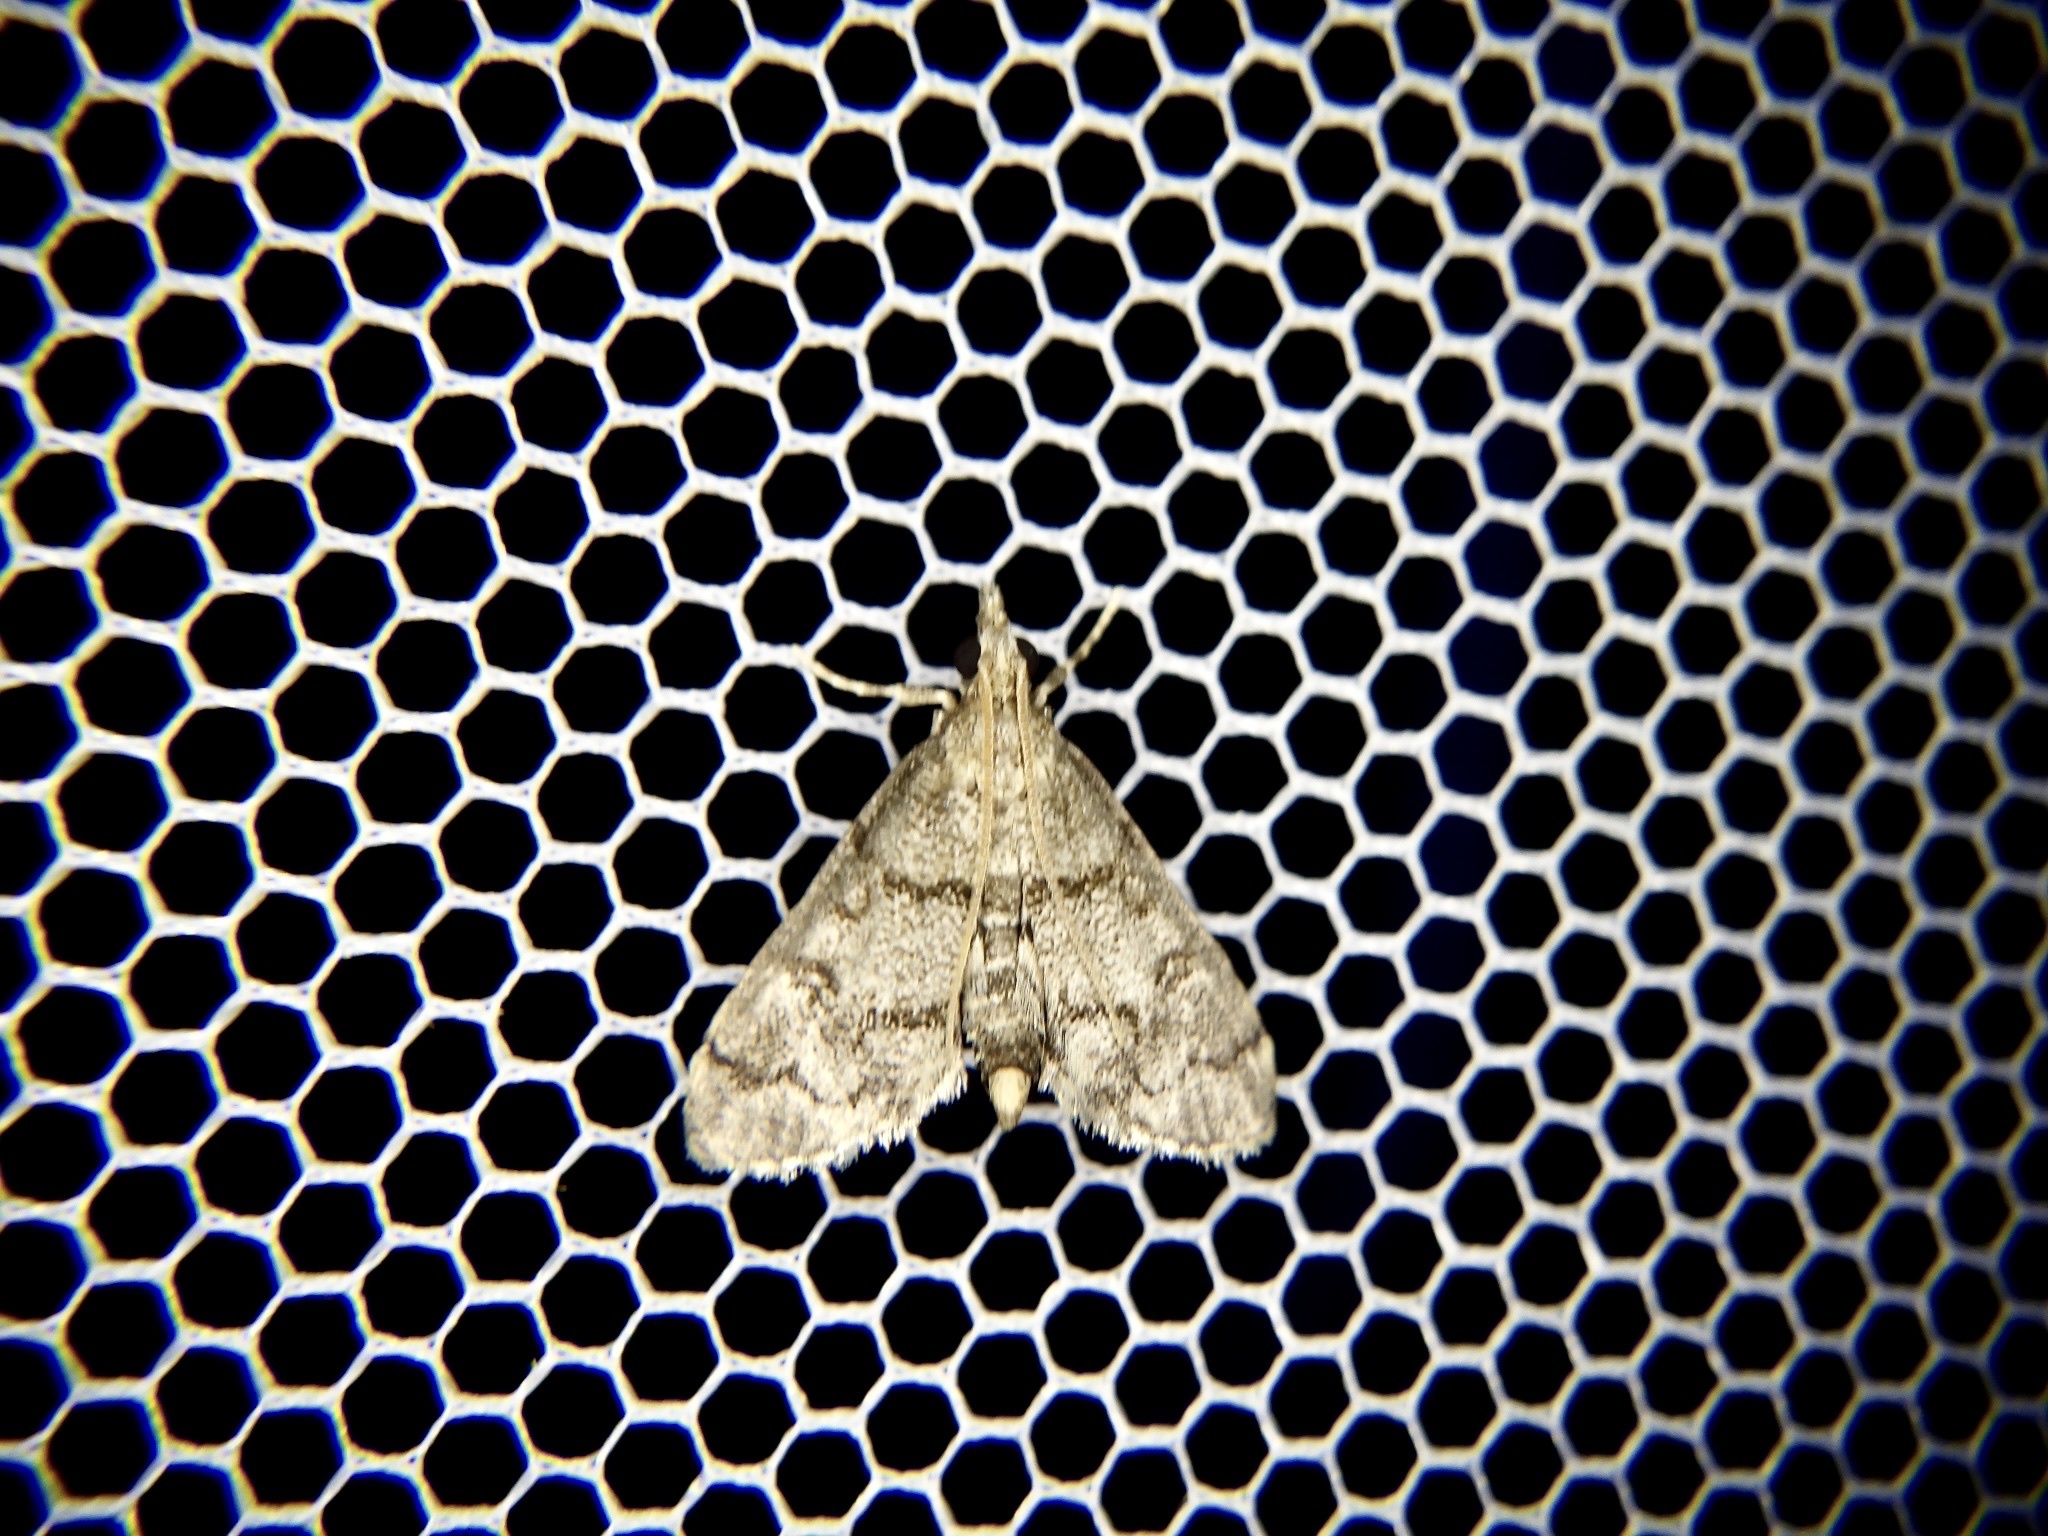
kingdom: Animalia
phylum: Arthropoda
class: Insecta
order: Lepidoptera
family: Crambidae
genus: Stenia
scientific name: Stenia Dolicharthria bruguieralis
